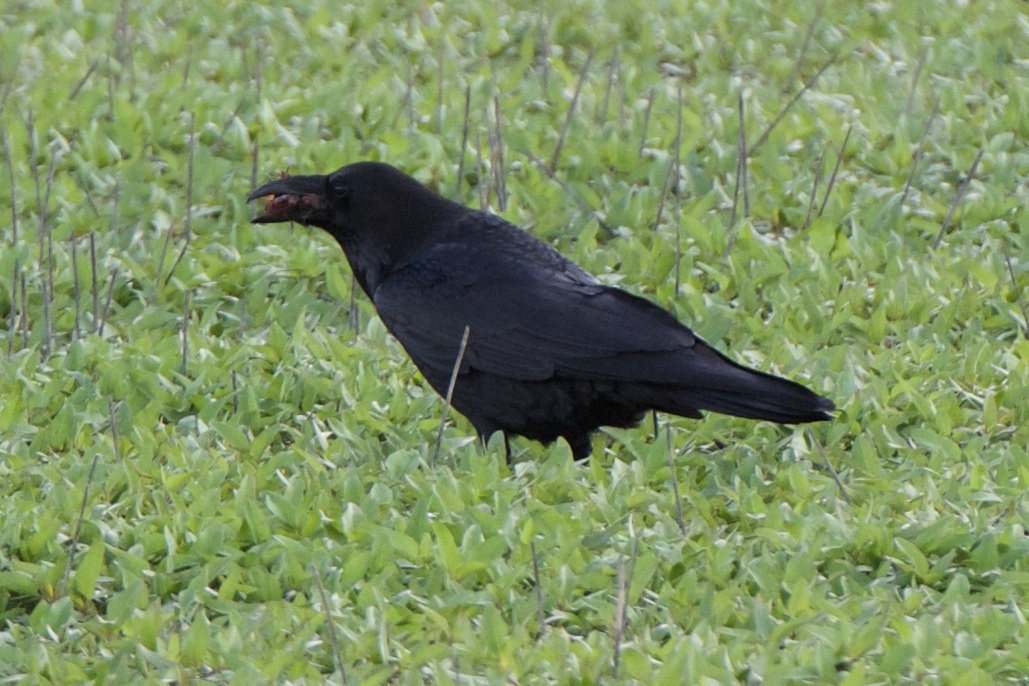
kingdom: Animalia
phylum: Chordata
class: Aves
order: Passeriformes
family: Corvidae
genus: Corvus
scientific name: Corvus corax
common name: Common raven
